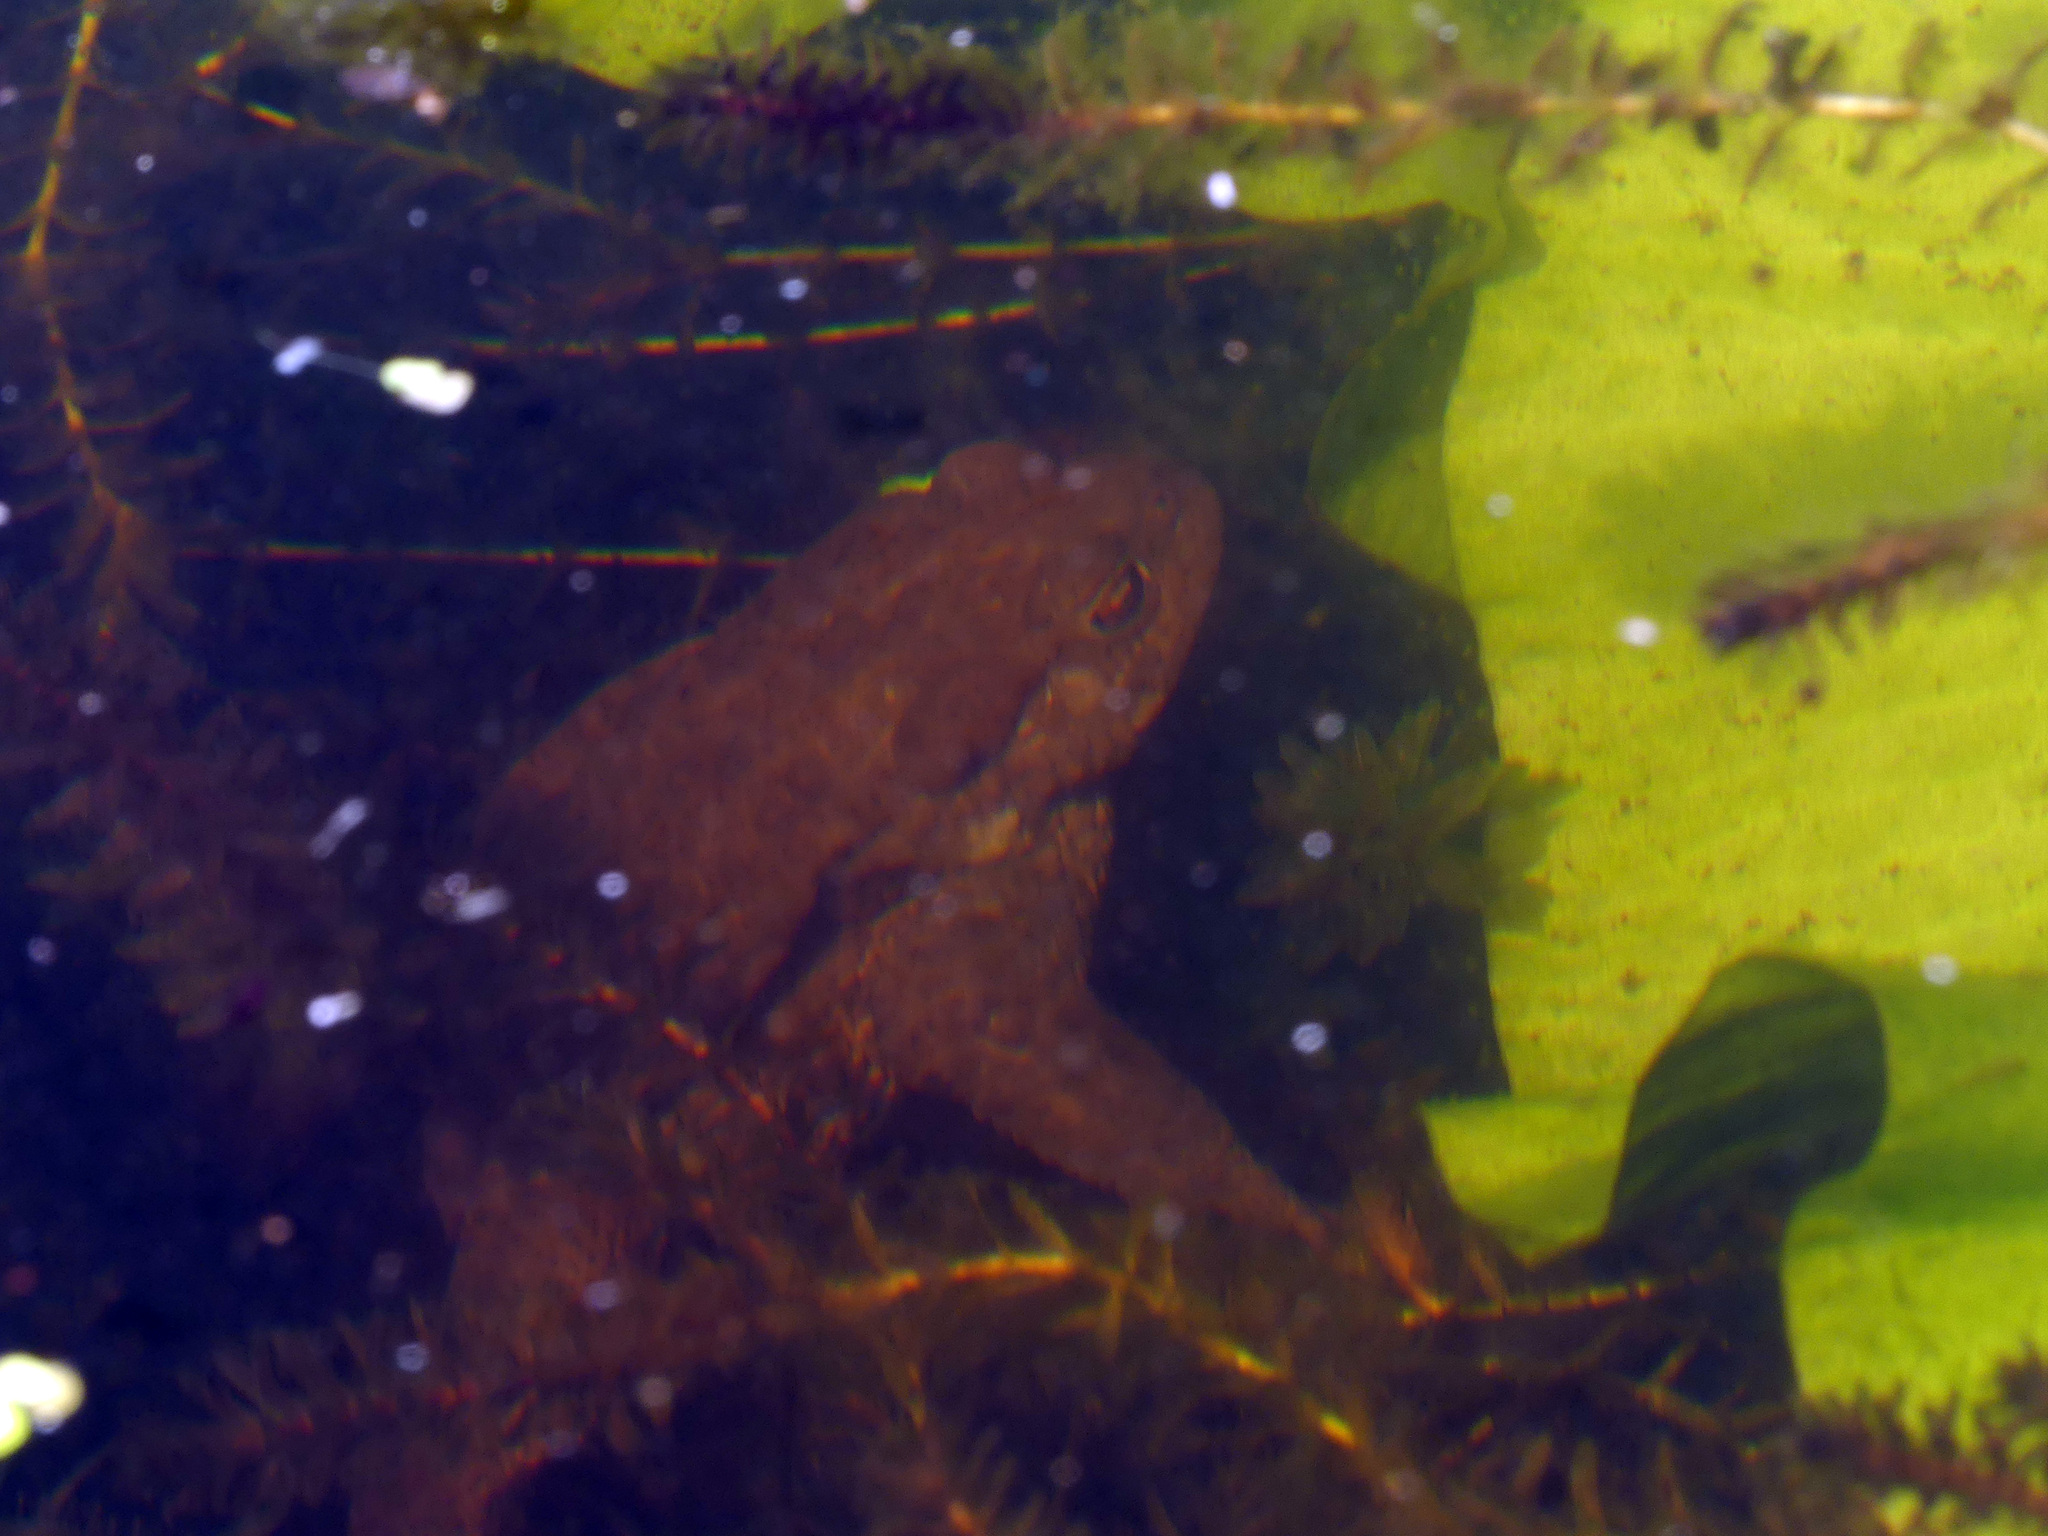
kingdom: Animalia
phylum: Chordata
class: Amphibia
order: Anura
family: Bufonidae
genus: Bufo
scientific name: Bufo bufo
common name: Common toad
